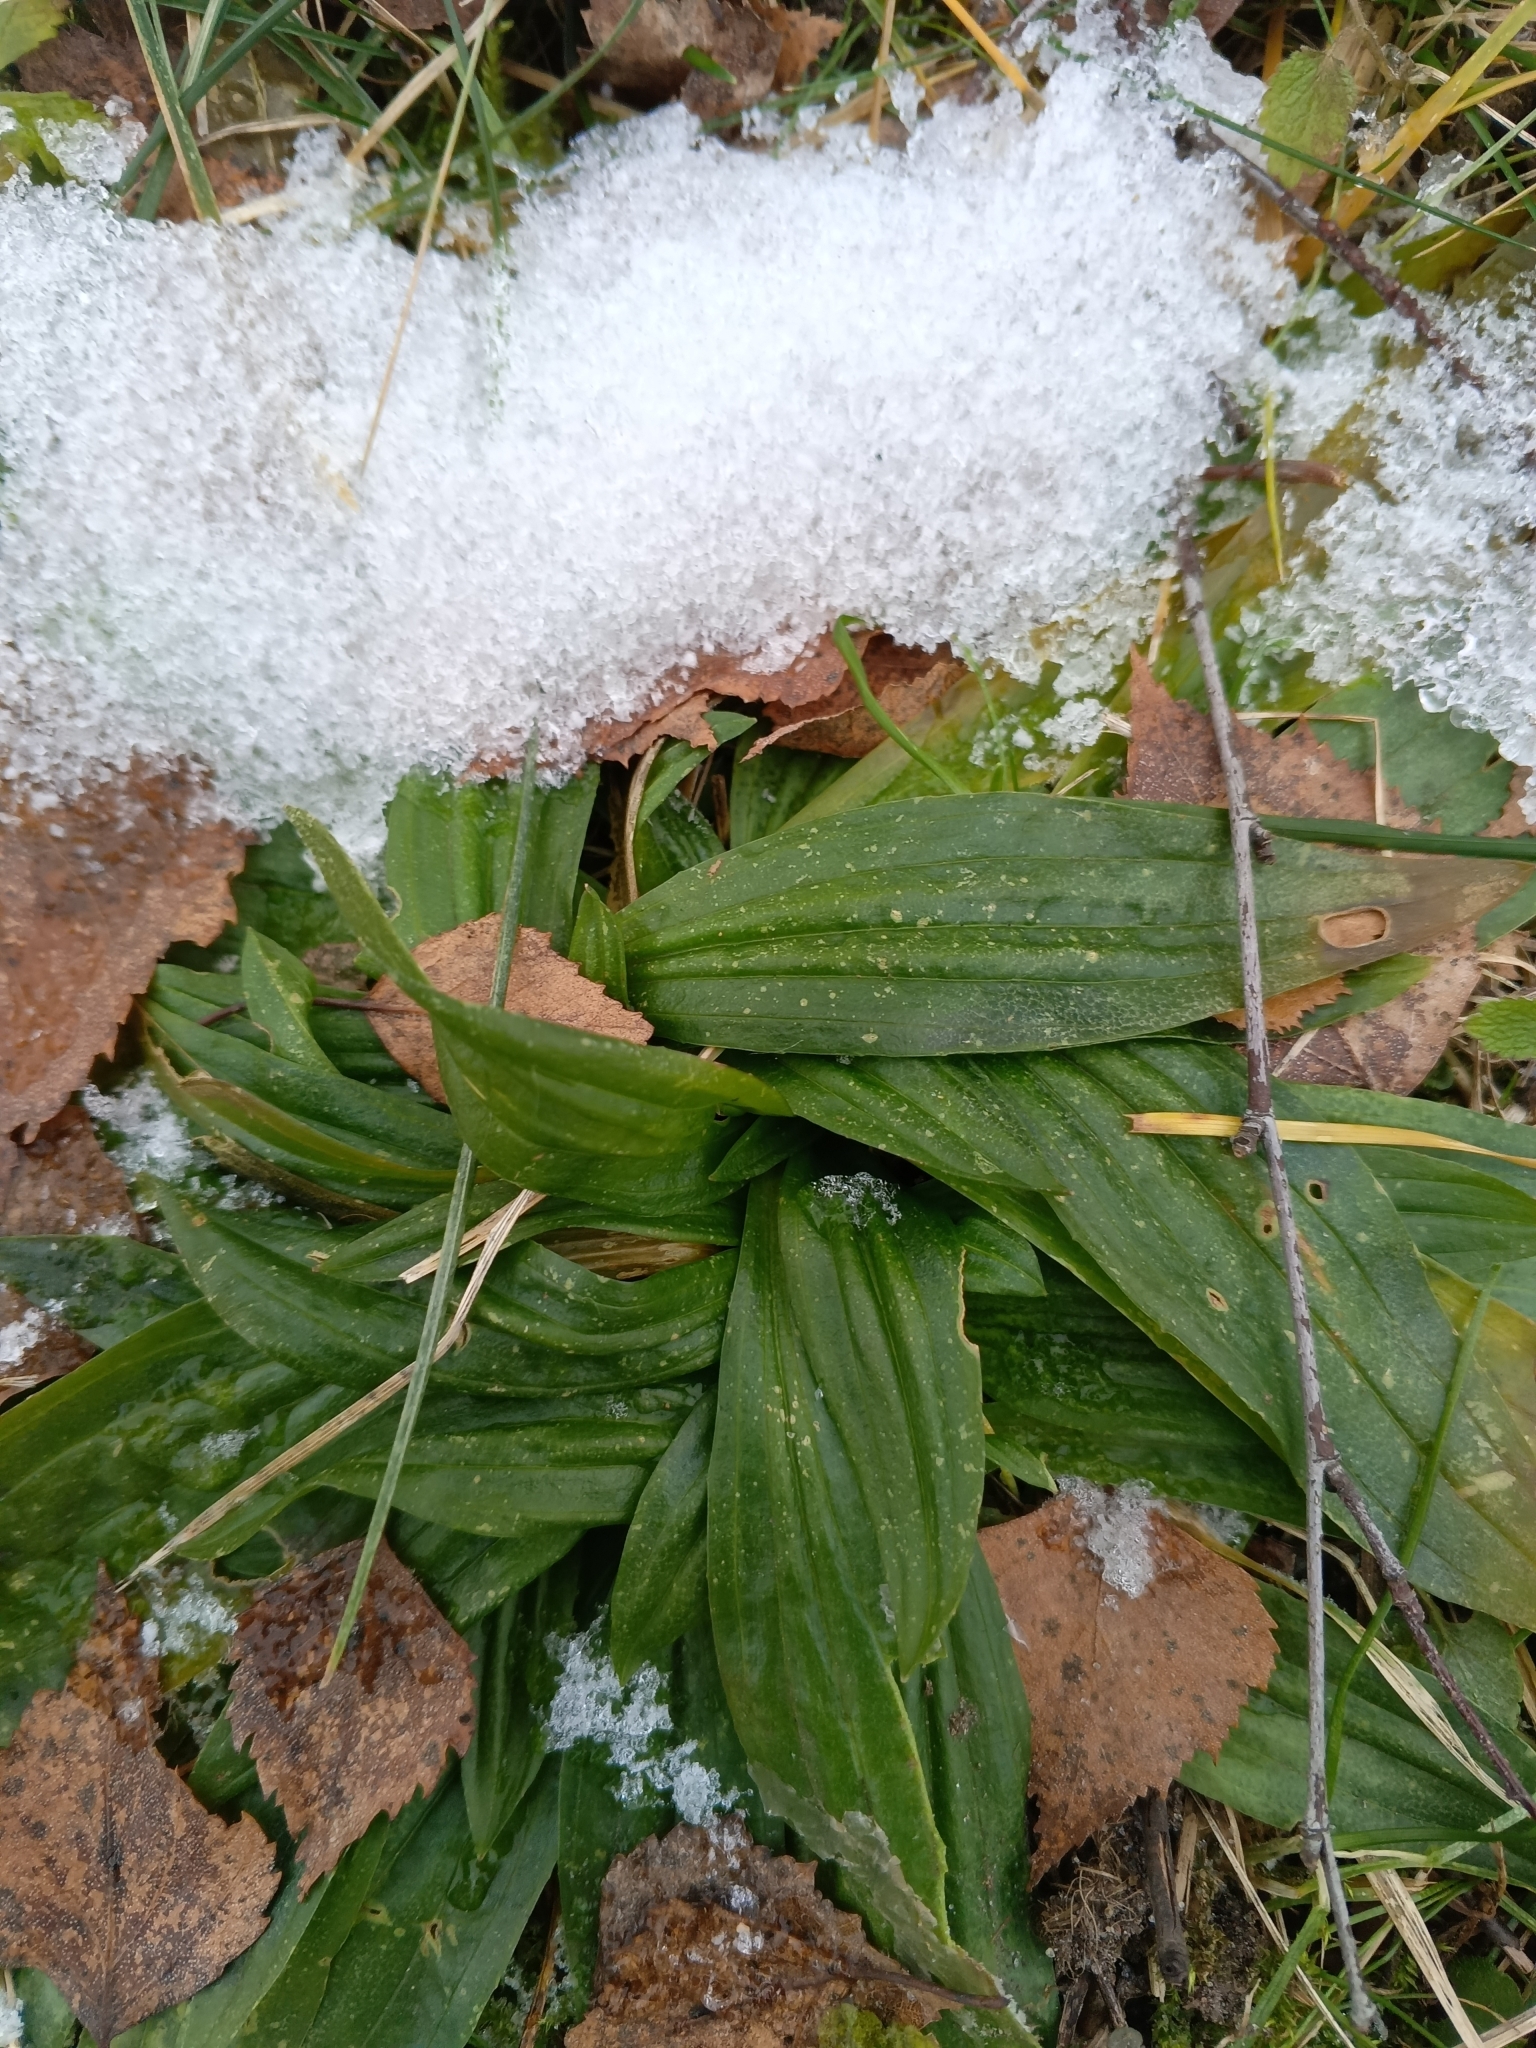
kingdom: Plantae
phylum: Tracheophyta
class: Magnoliopsida
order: Lamiales
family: Plantaginaceae
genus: Plantago
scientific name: Plantago lanceolata
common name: Ribwort plantain
